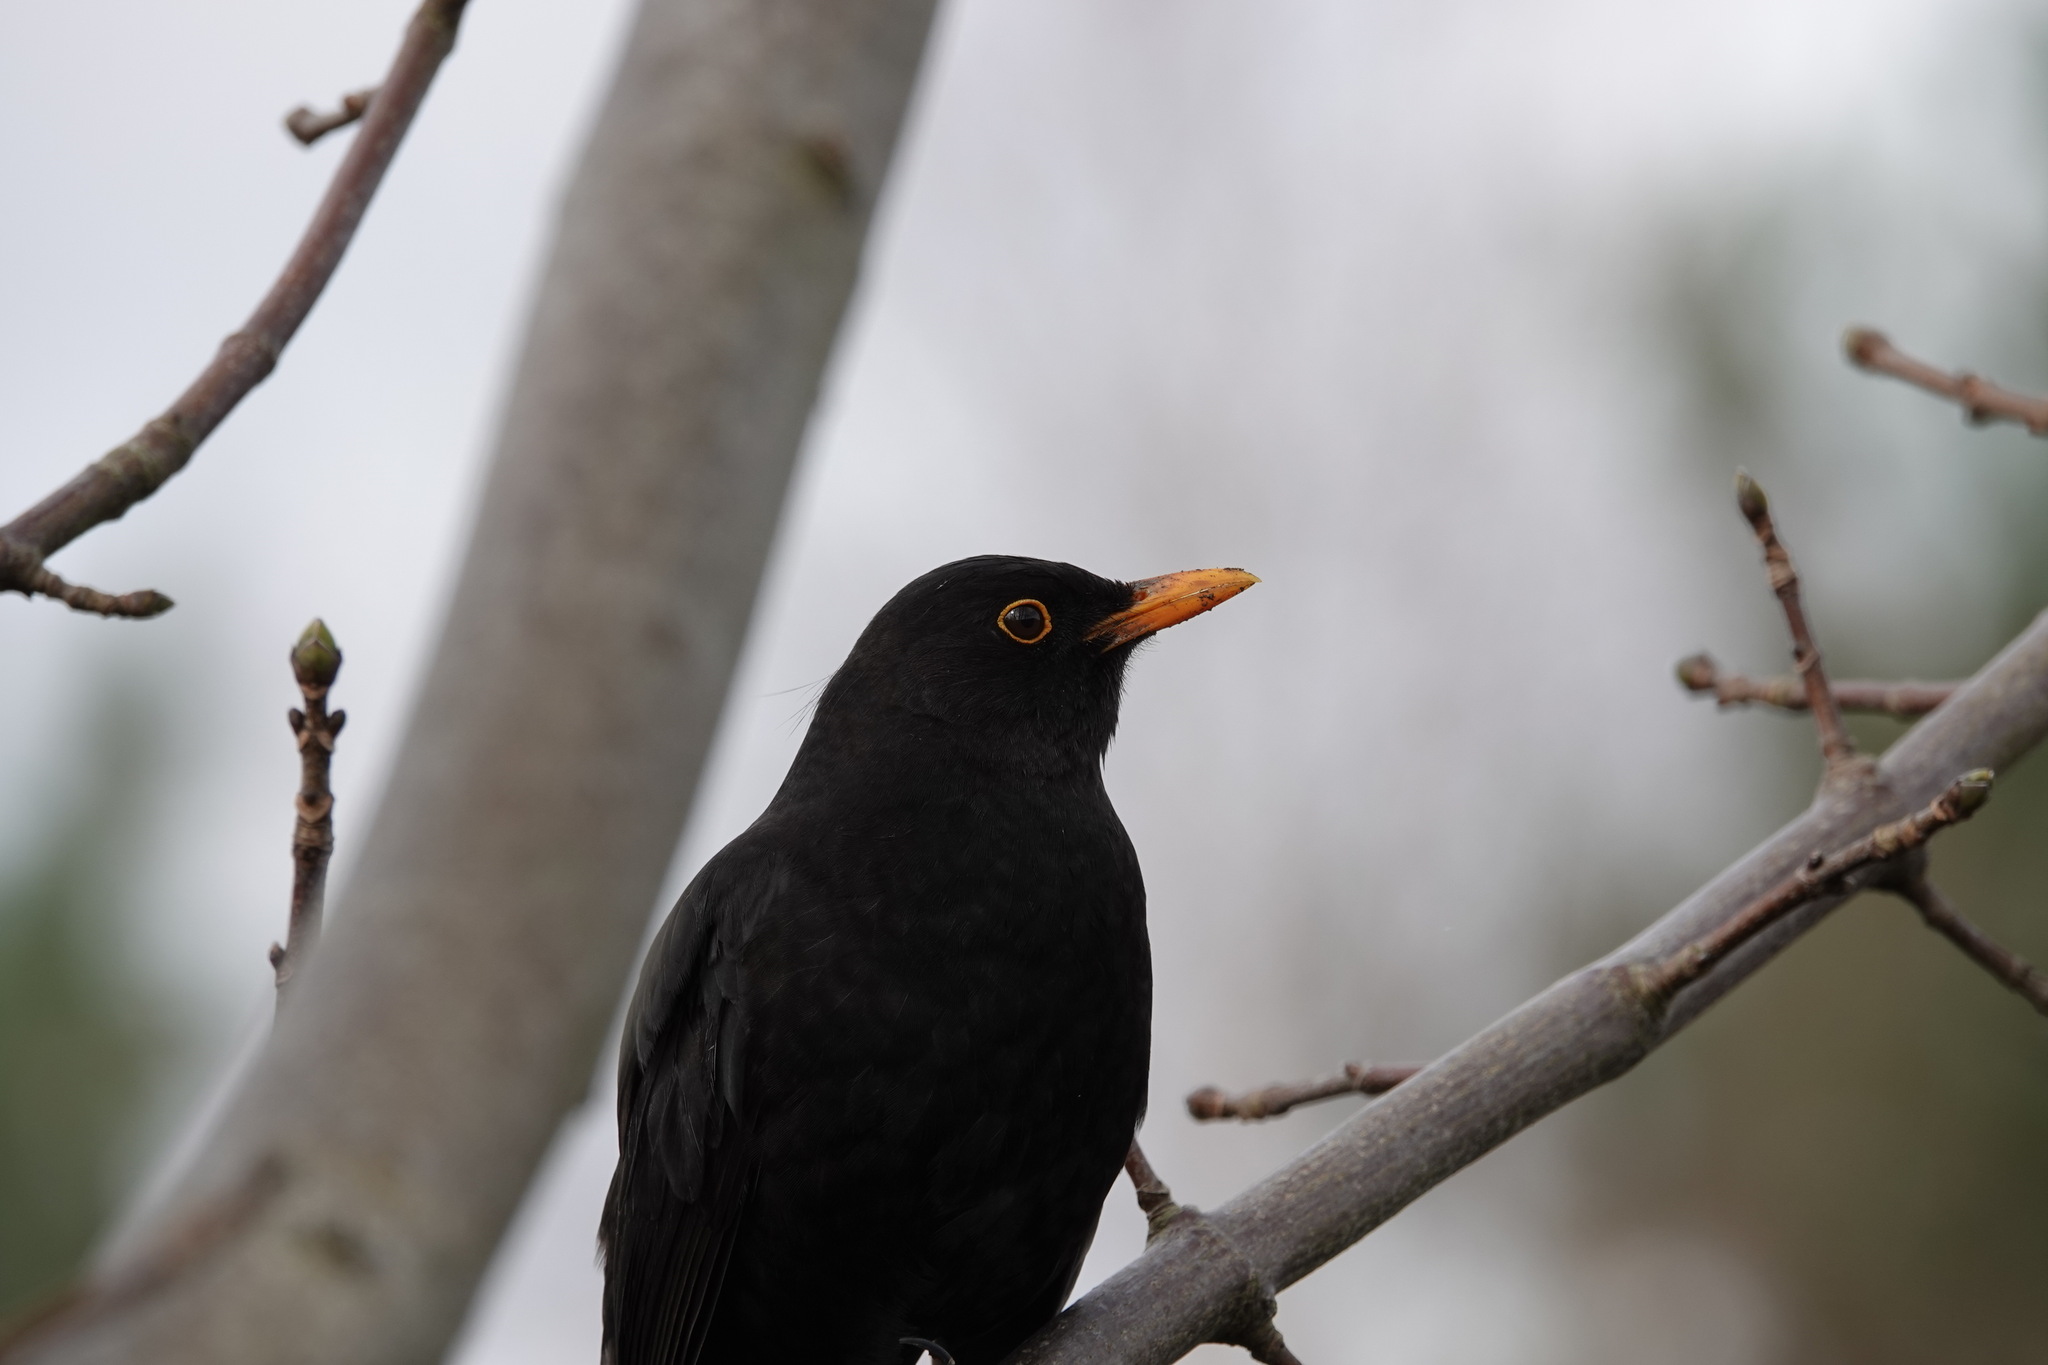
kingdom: Animalia
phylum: Chordata
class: Aves
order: Passeriformes
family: Turdidae
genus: Turdus
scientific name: Turdus merula
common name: Common blackbird
